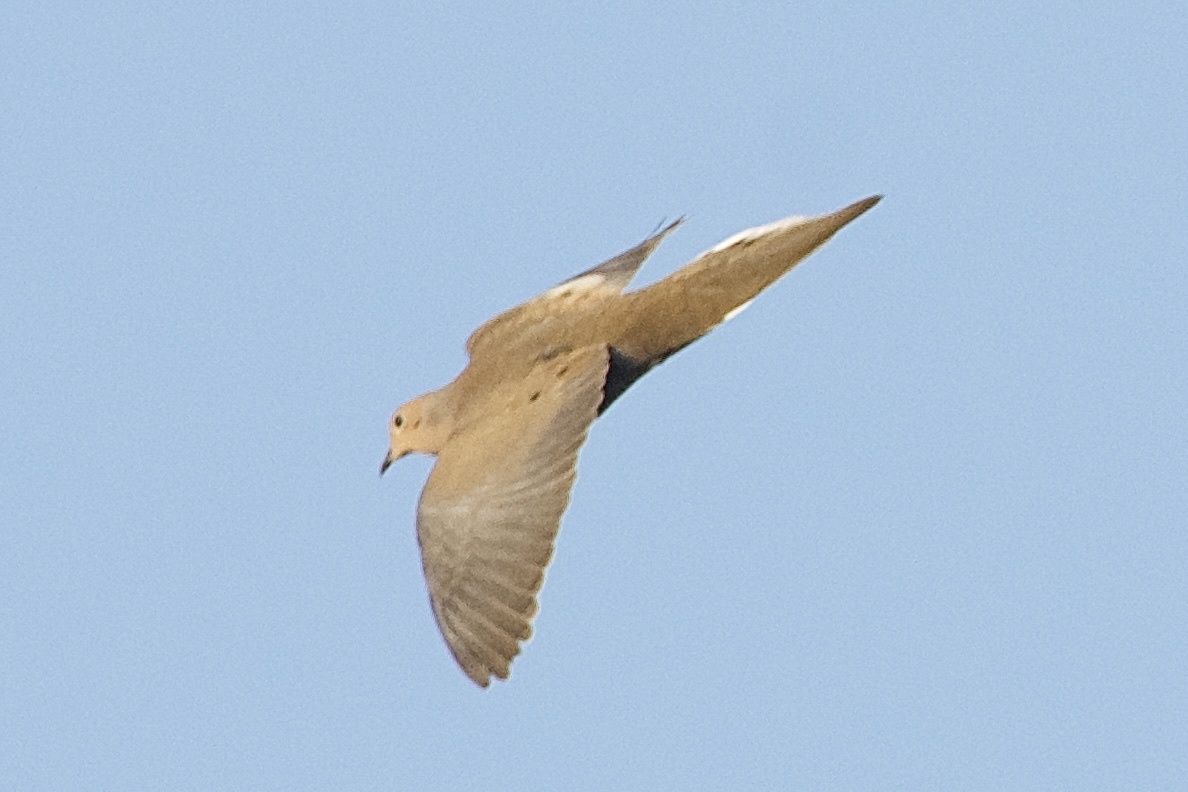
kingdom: Animalia
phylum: Chordata
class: Aves
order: Columbiformes
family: Columbidae
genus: Zenaida
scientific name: Zenaida macroura
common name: Mourning dove
